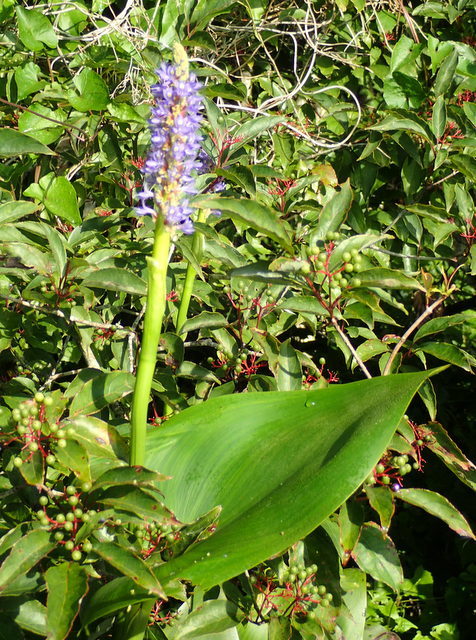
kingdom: Plantae
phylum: Tracheophyta
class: Liliopsida
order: Commelinales
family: Pontederiaceae
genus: Pontederia
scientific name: Pontederia cordata
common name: Pickerelweed
